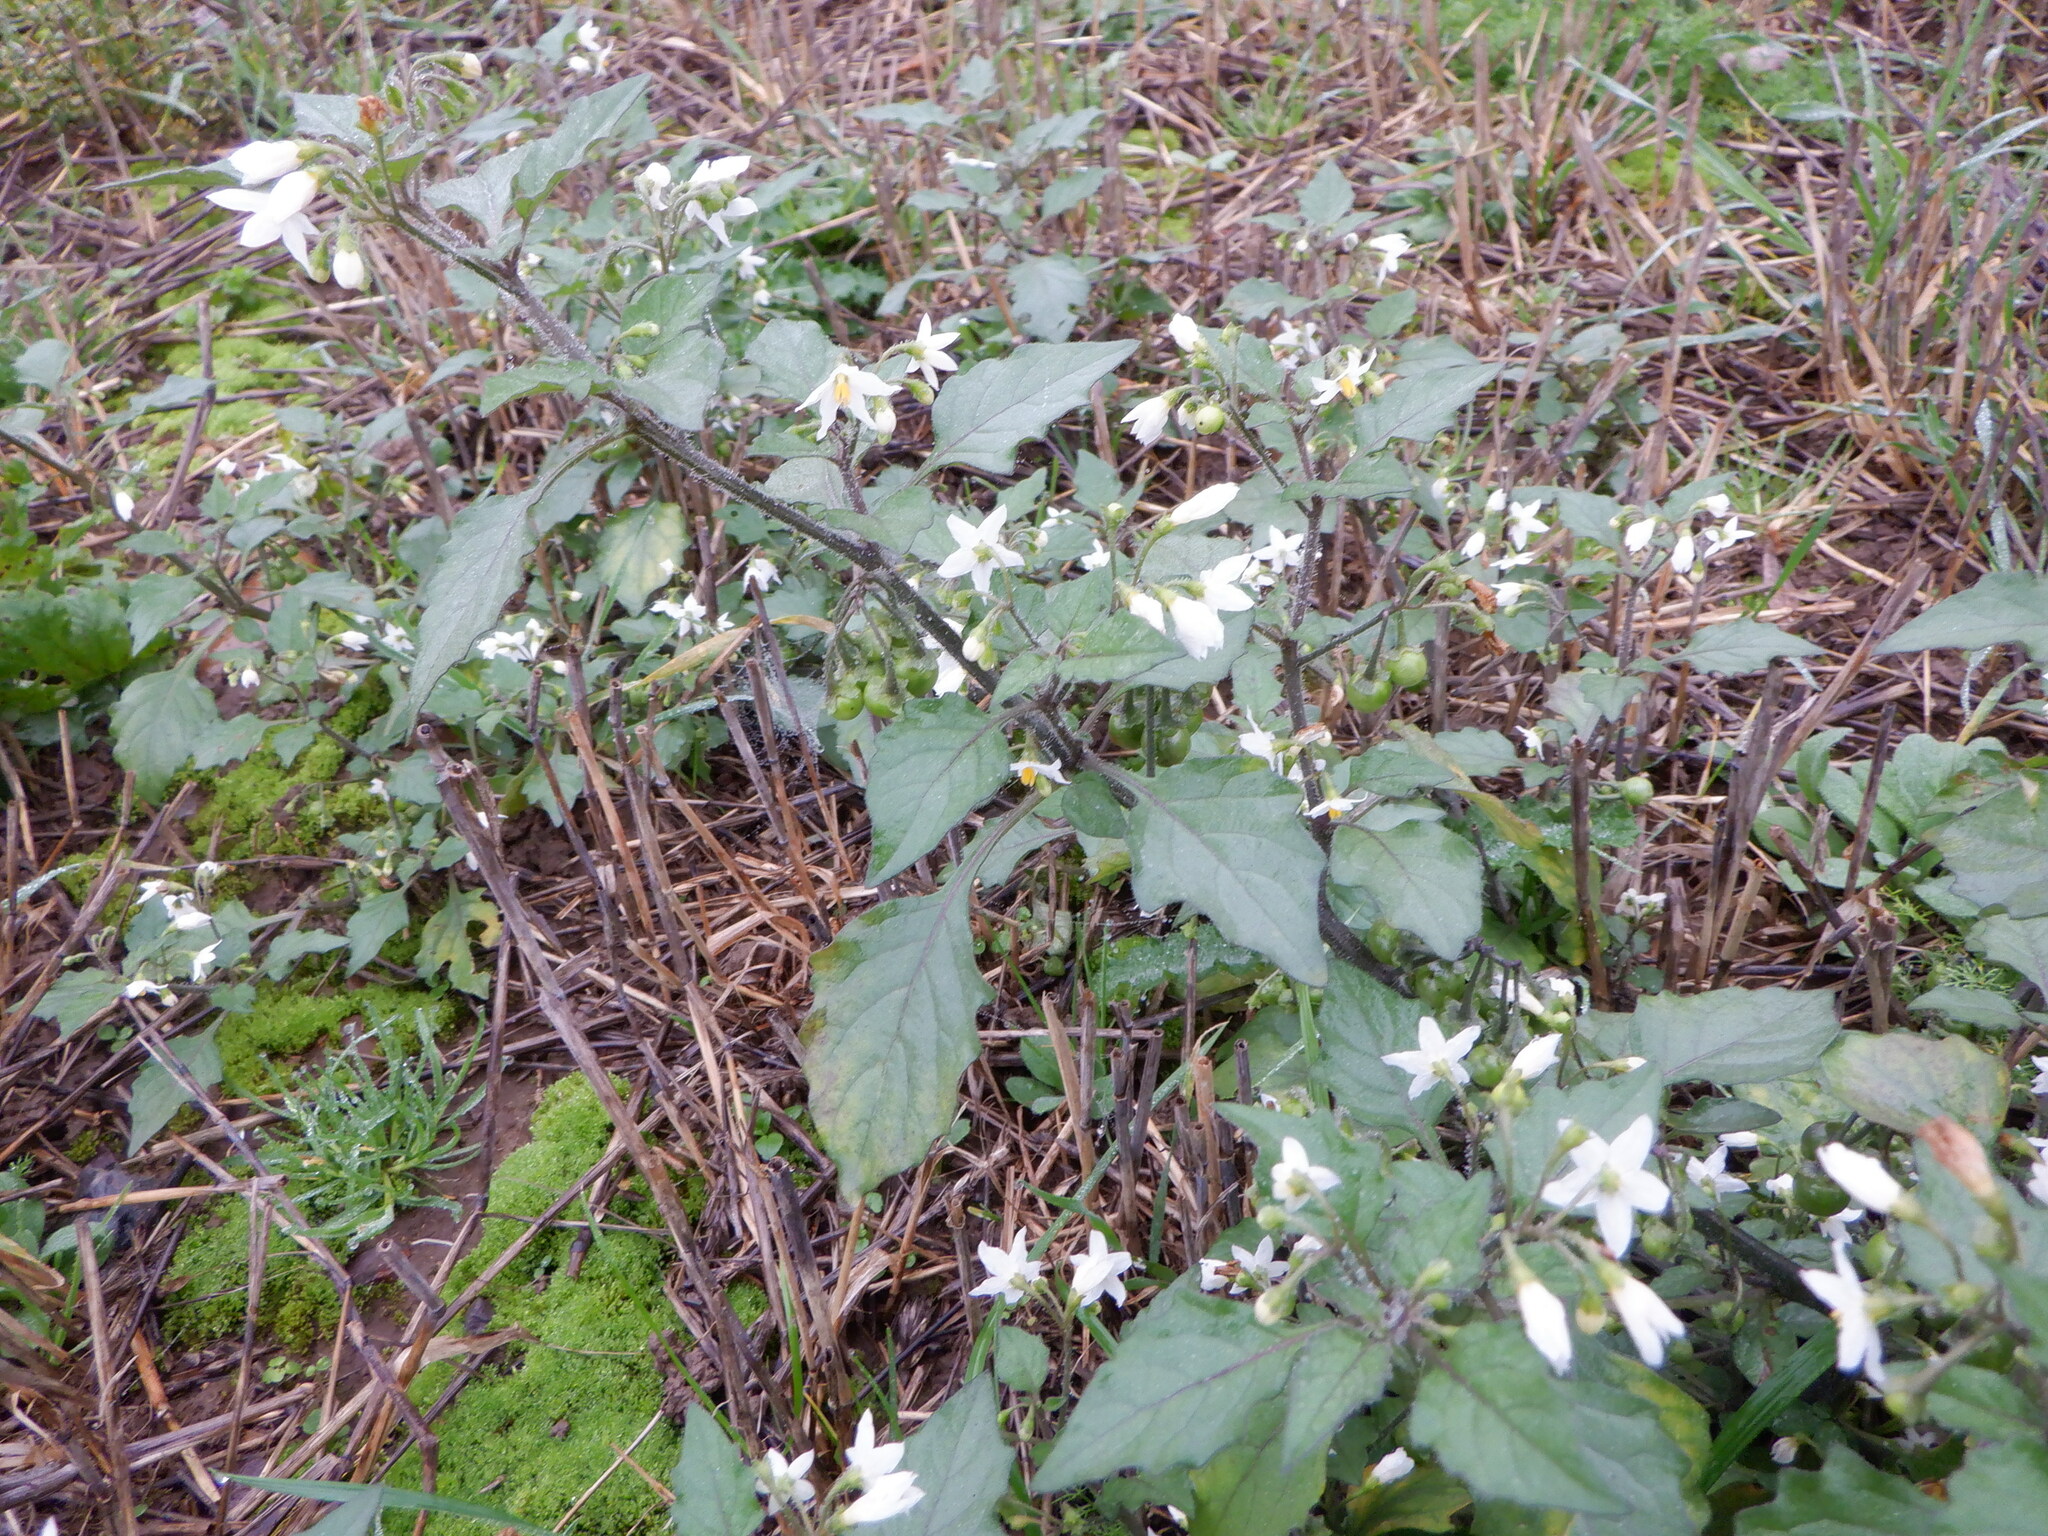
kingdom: Plantae
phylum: Tracheophyta
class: Magnoliopsida
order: Solanales
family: Solanaceae
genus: Solanum
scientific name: Solanum nigrum
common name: Black nightshade
